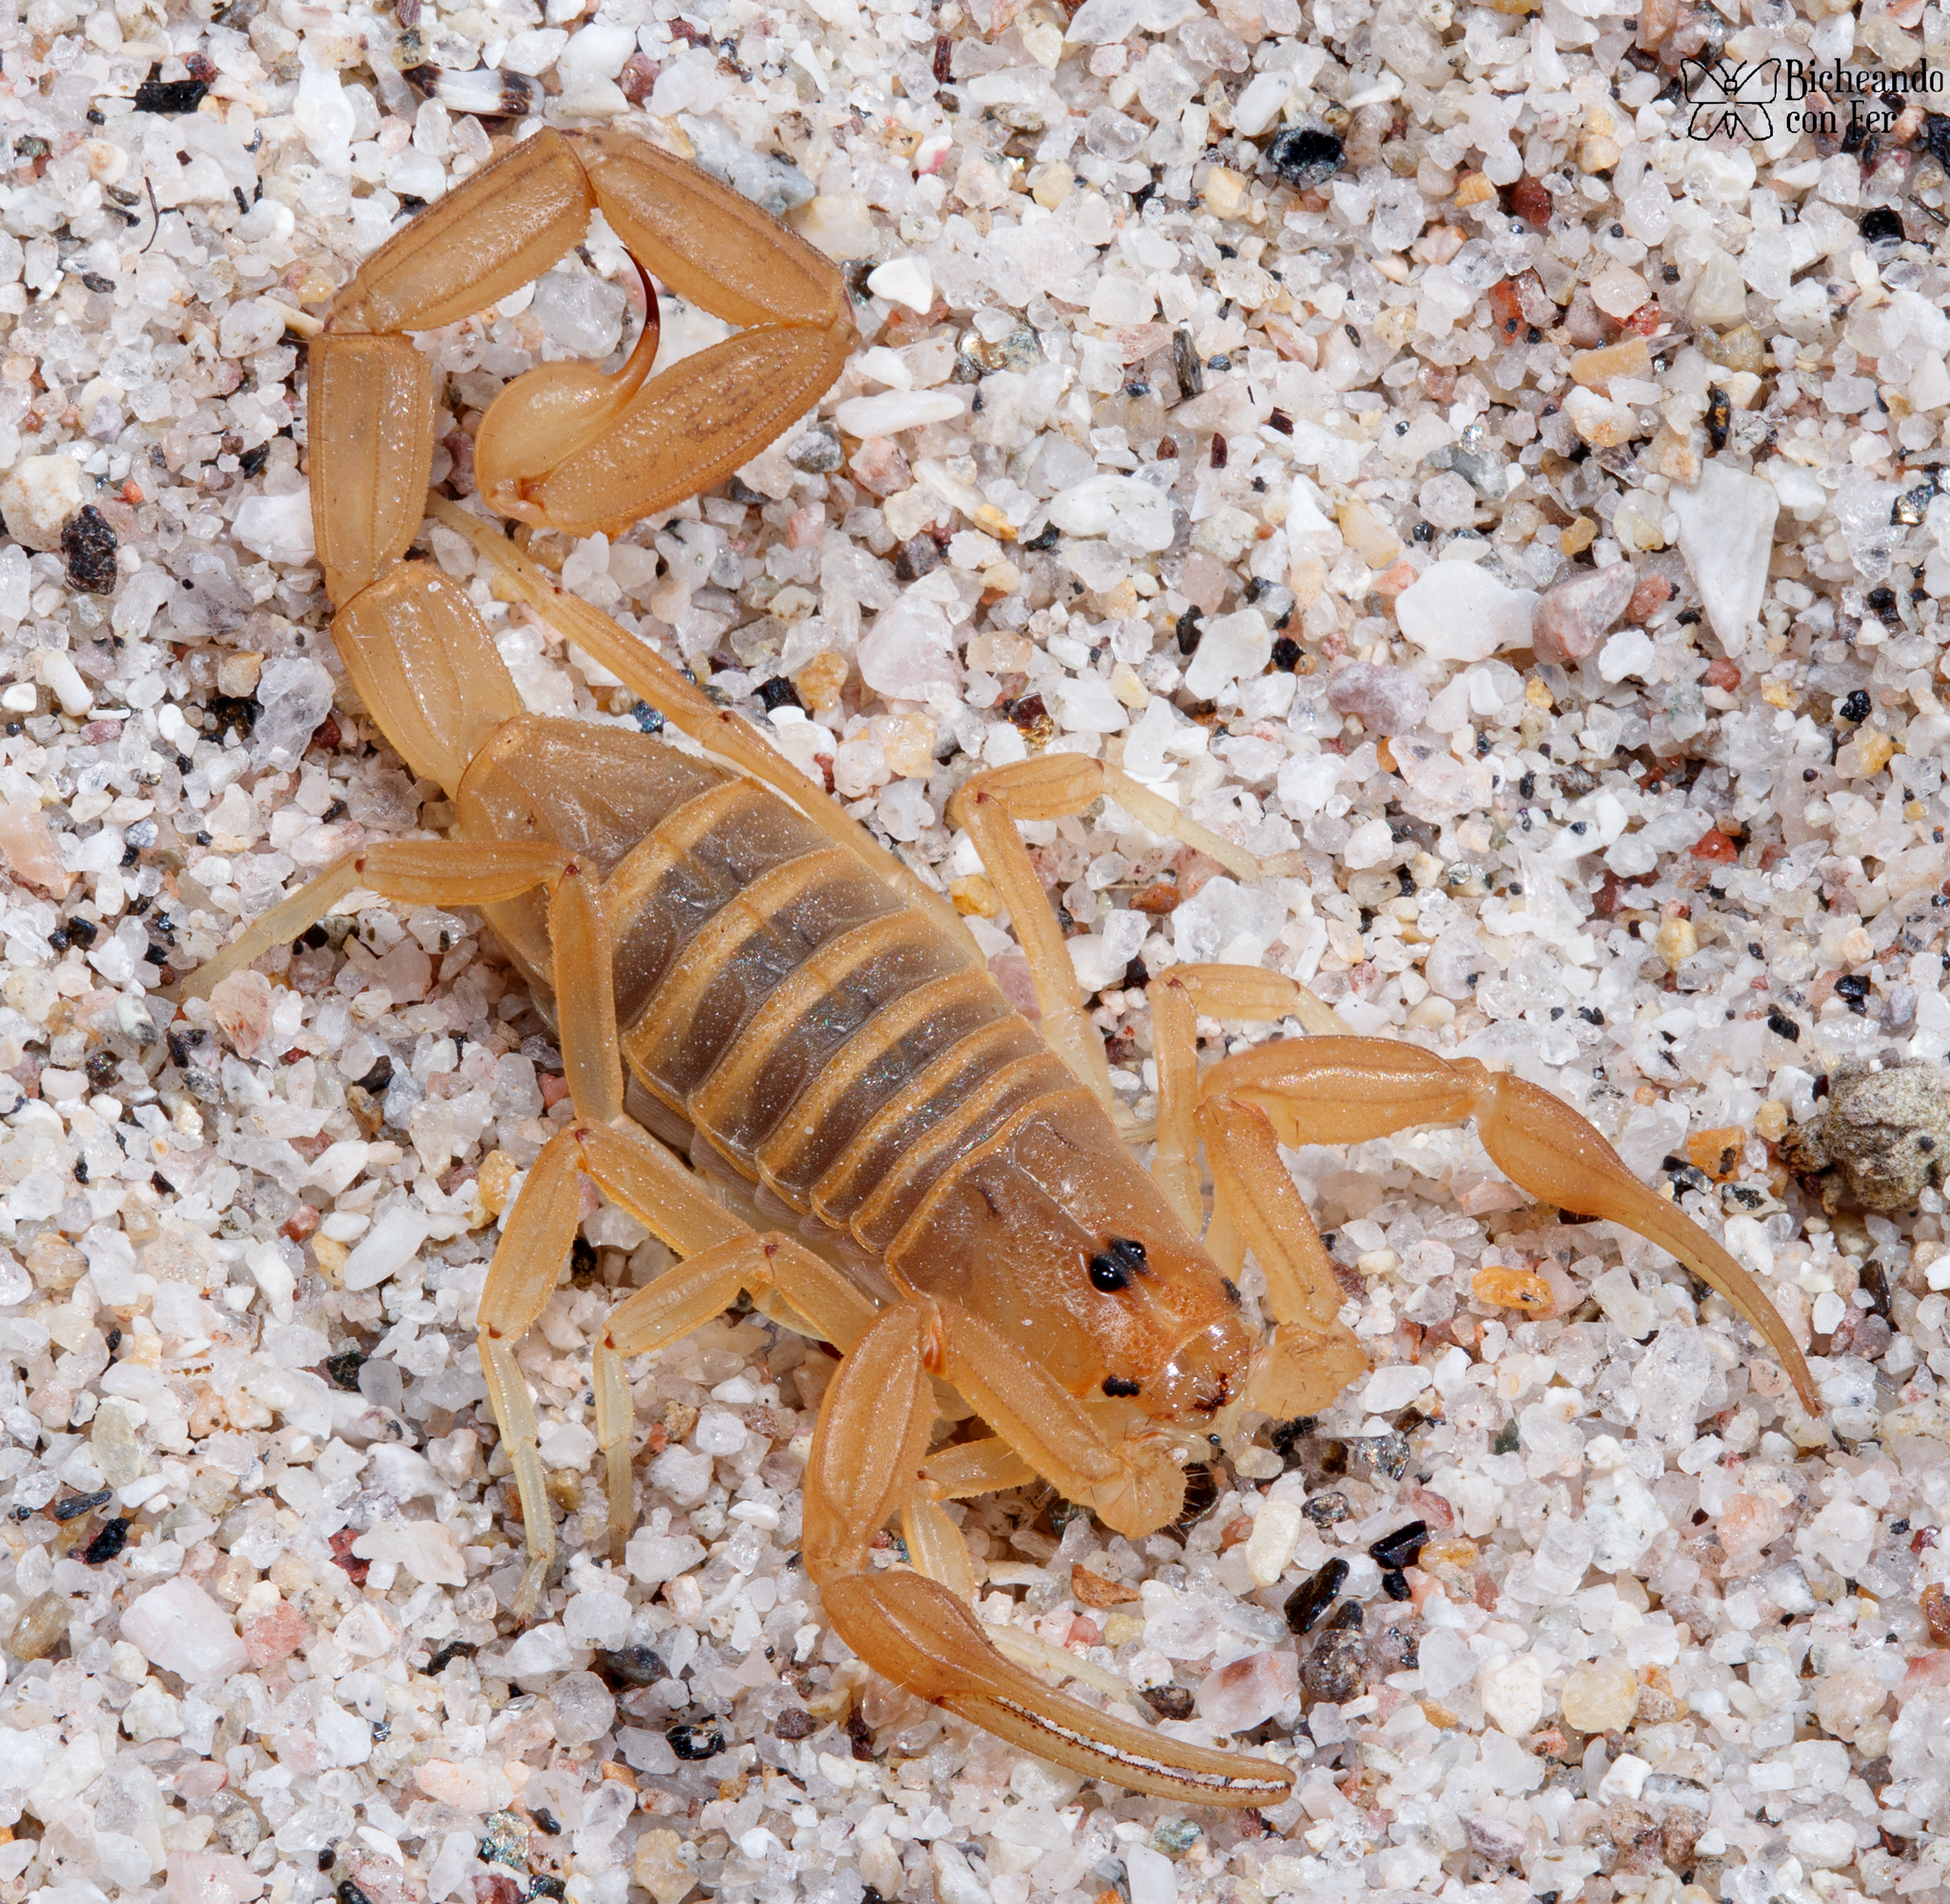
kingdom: Animalia
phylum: Arthropoda
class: Arachnida
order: Scorpiones
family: Buthidae
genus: Centruroides
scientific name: Centruroides sculpturatus
